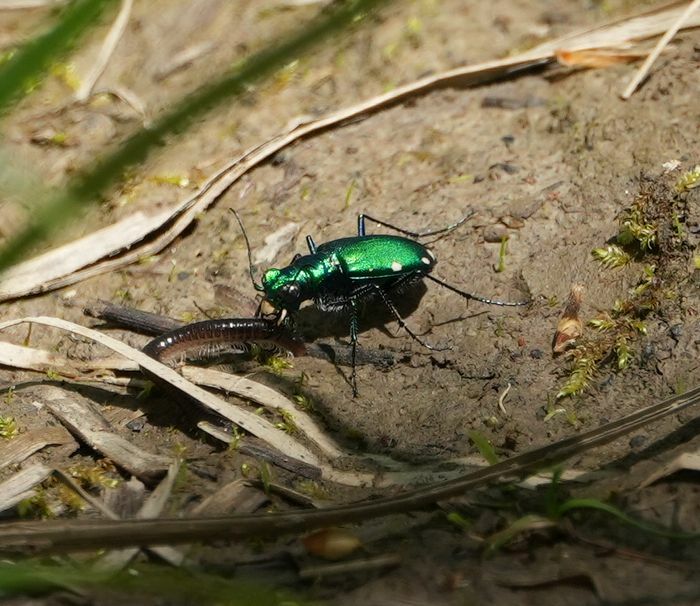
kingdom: Animalia
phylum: Arthropoda
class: Insecta
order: Coleoptera
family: Carabidae
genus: Cicindela
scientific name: Cicindela sexguttata
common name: Six-spotted tiger beetle
